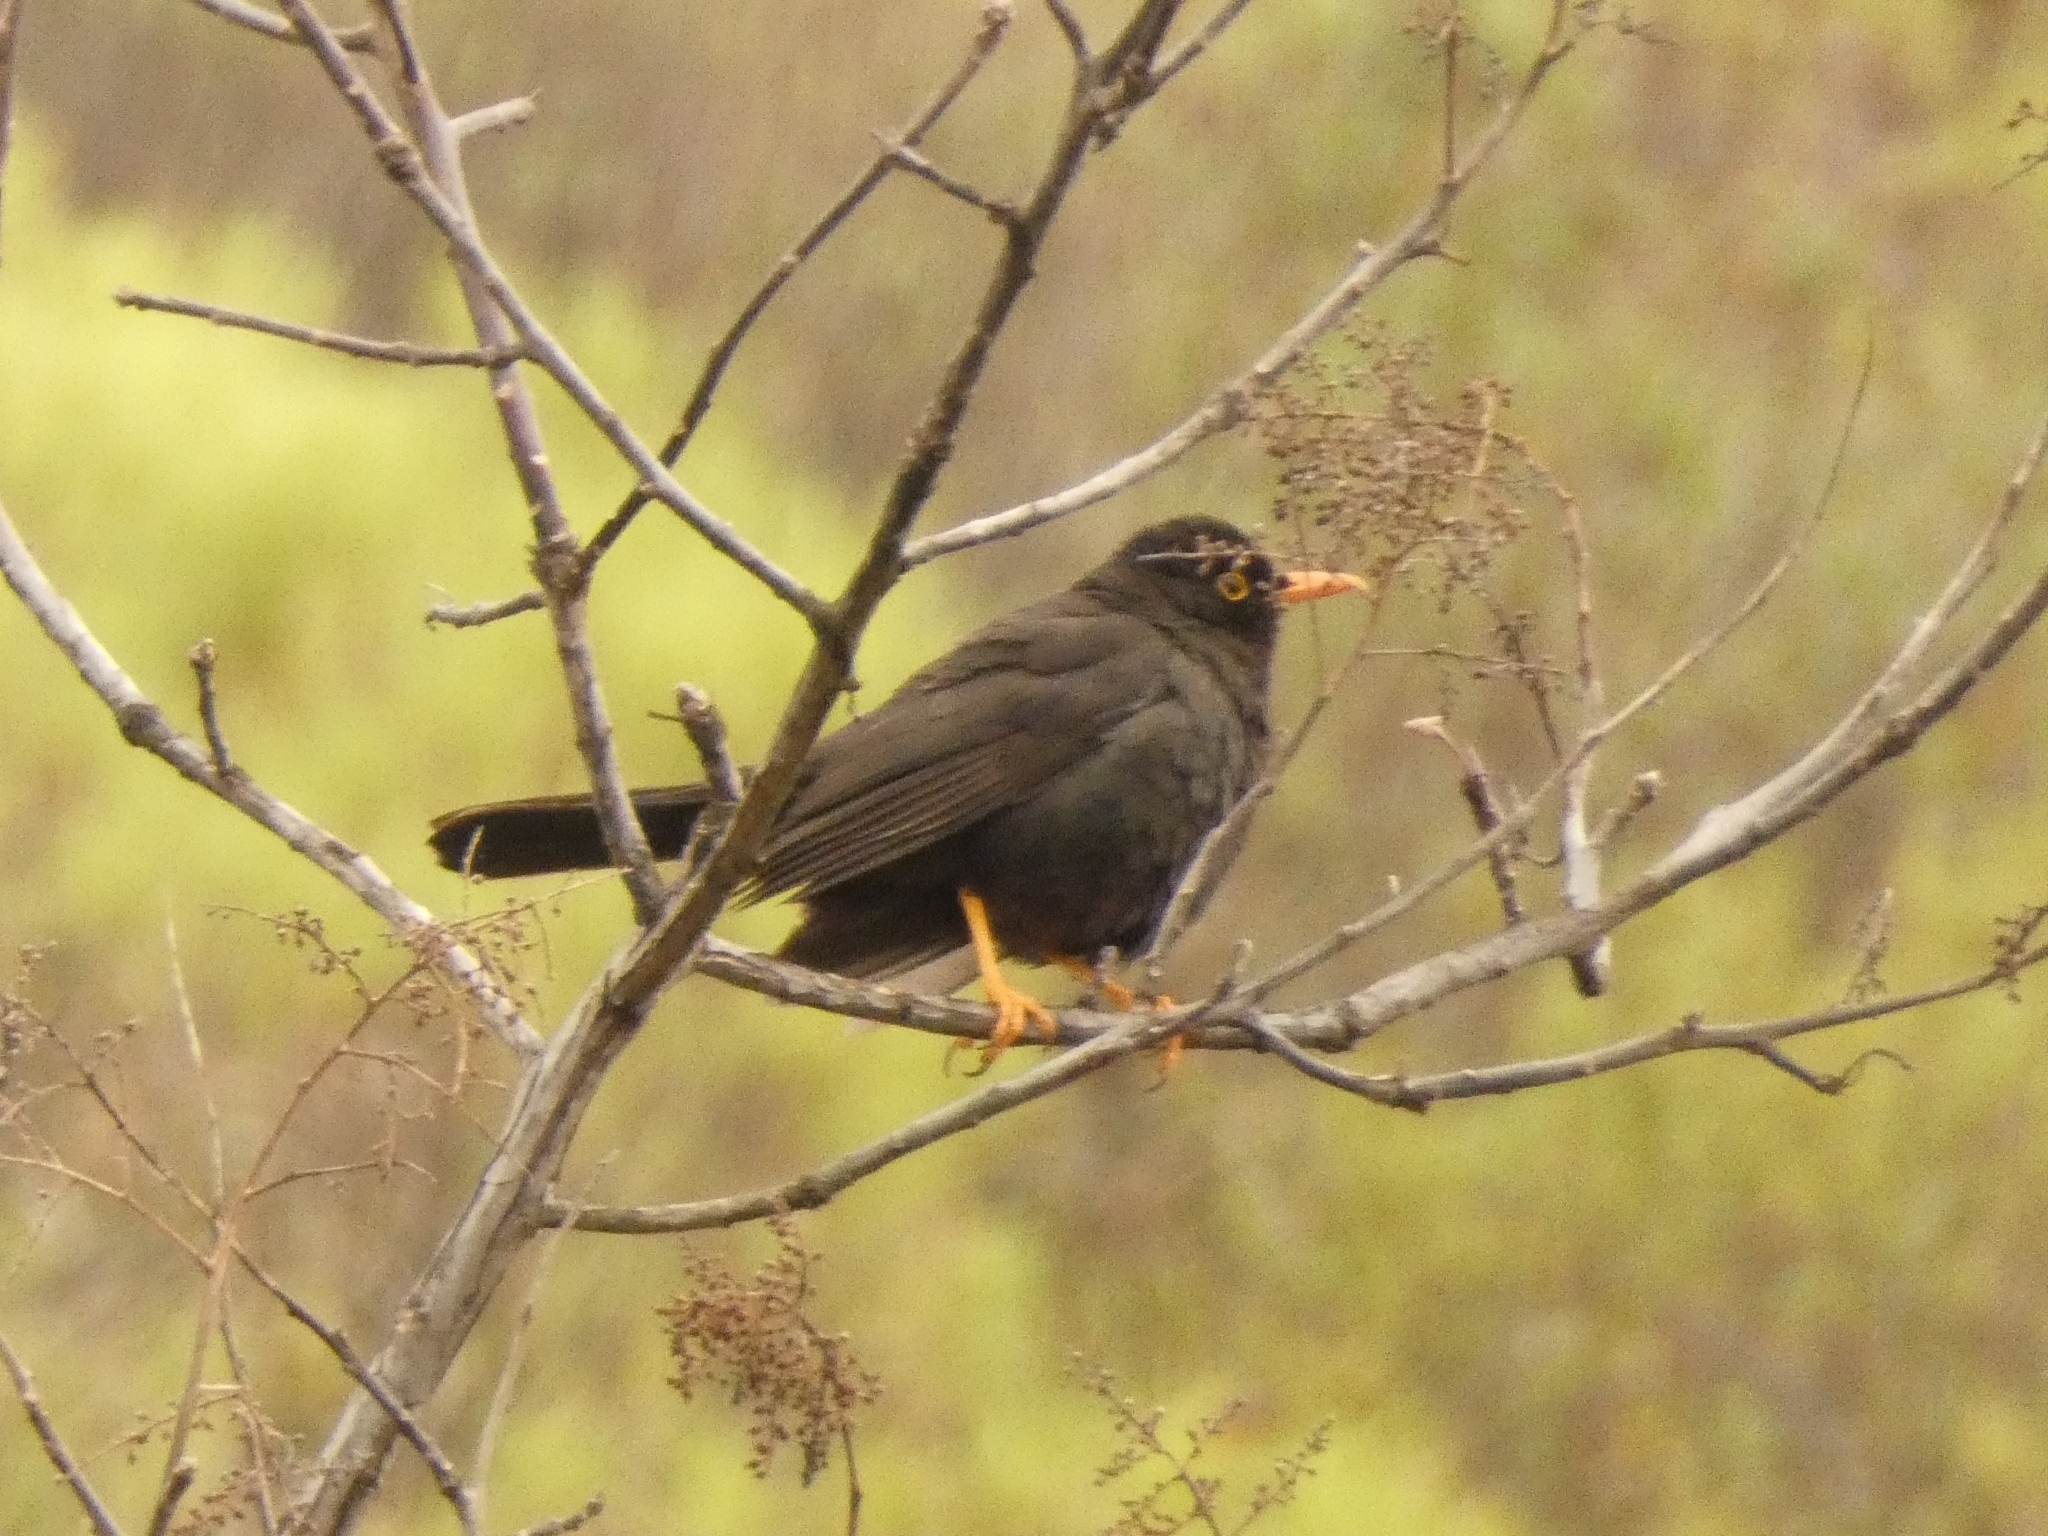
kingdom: Animalia
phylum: Chordata
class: Aves
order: Passeriformes
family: Turdidae
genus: Turdus
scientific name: Turdus chiguanco
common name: Chiguanco thrush
